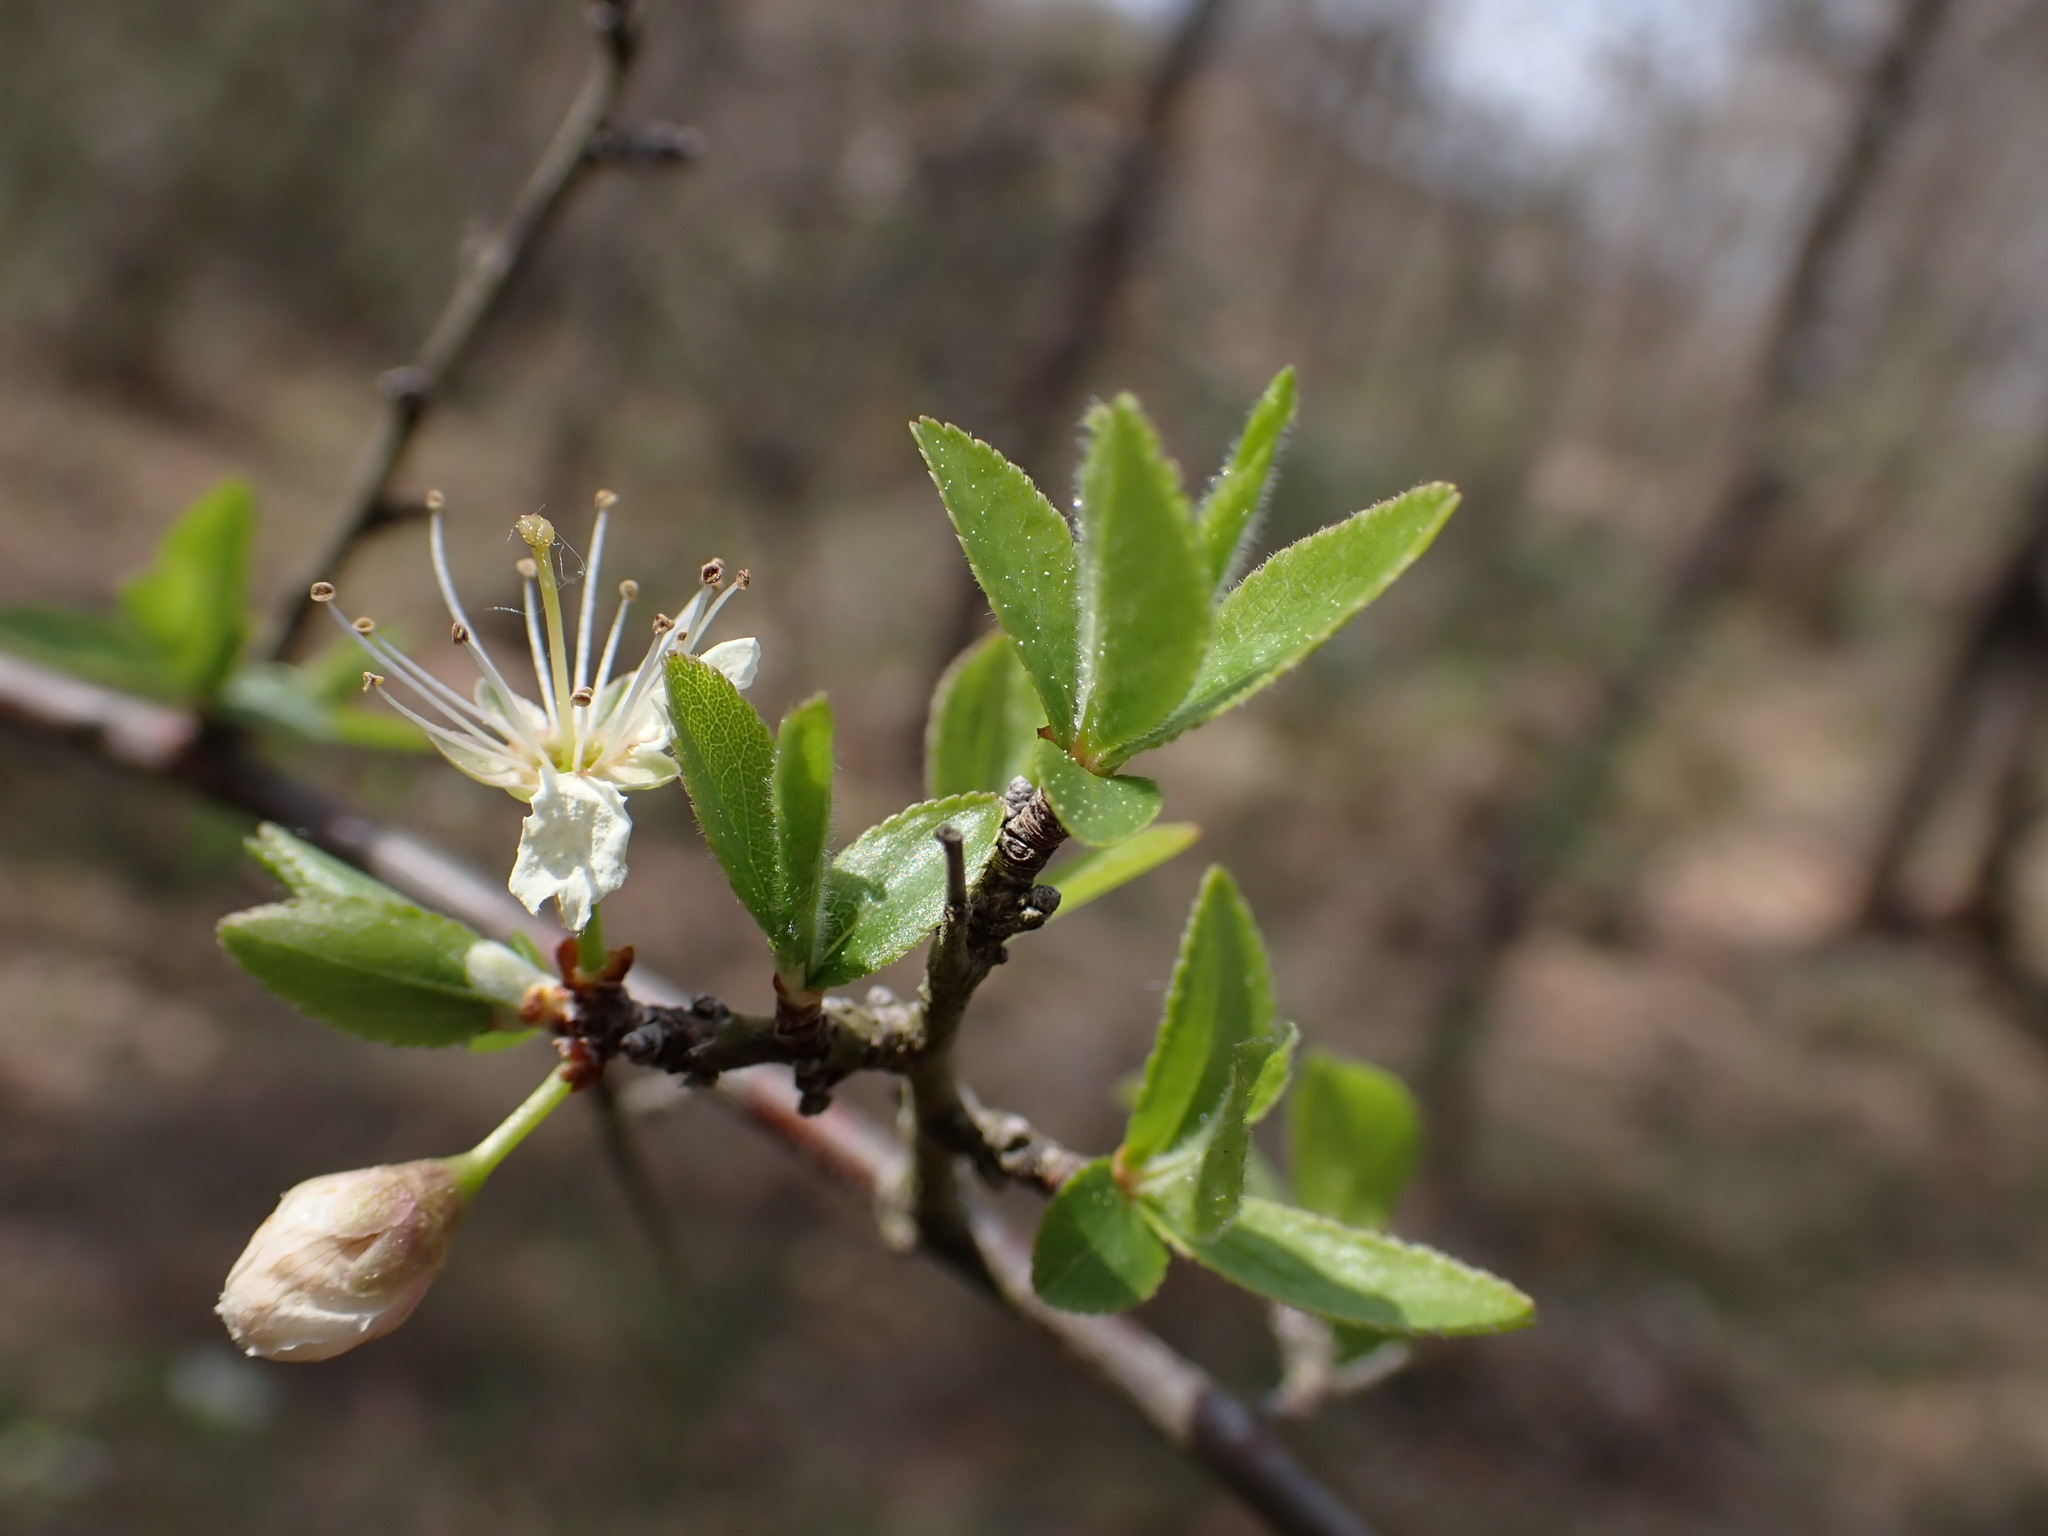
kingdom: Plantae
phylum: Tracheophyta
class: Magnoliopsida
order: Rosales
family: Rosaceae
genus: Prunus
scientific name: Prunus spinosa
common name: Blackthorn
